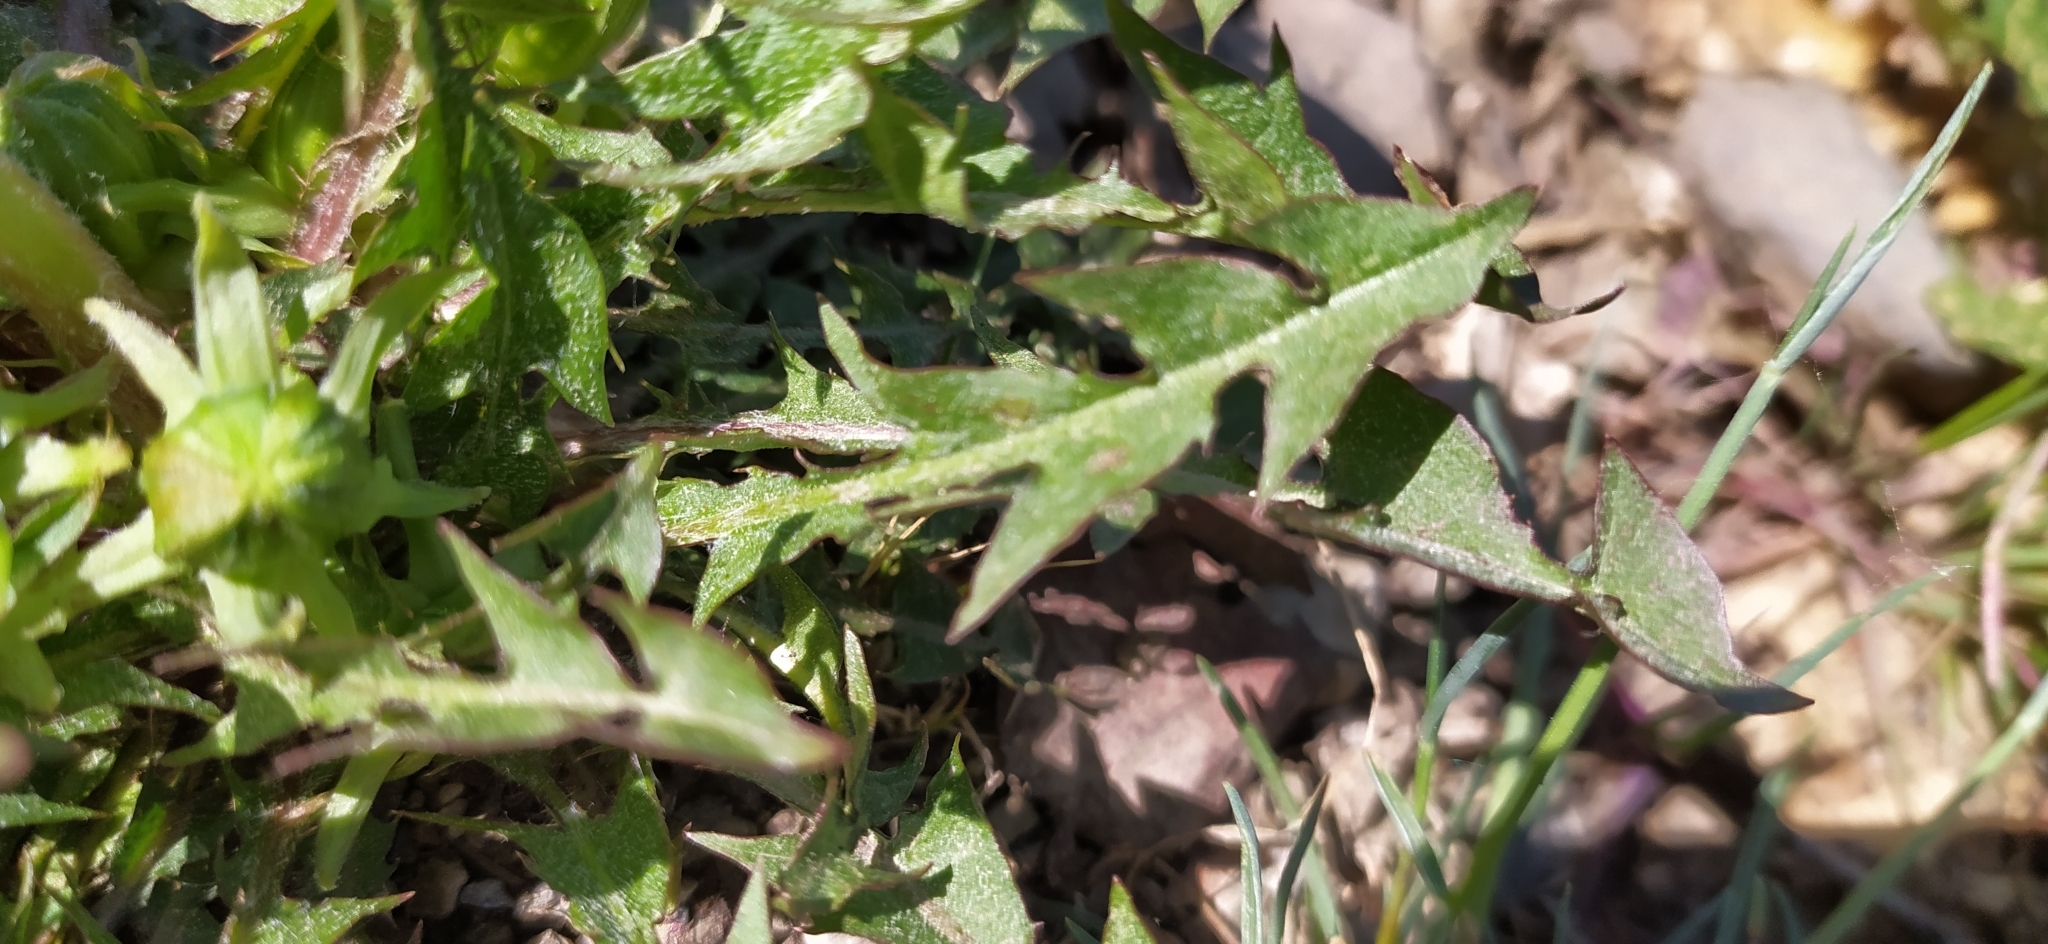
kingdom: Plantae
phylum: Tracheophyta
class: Magnoliopsida
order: Asterales
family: Asteraceae
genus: Taraxacum
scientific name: Taraxacum officinale
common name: Common dandelion
